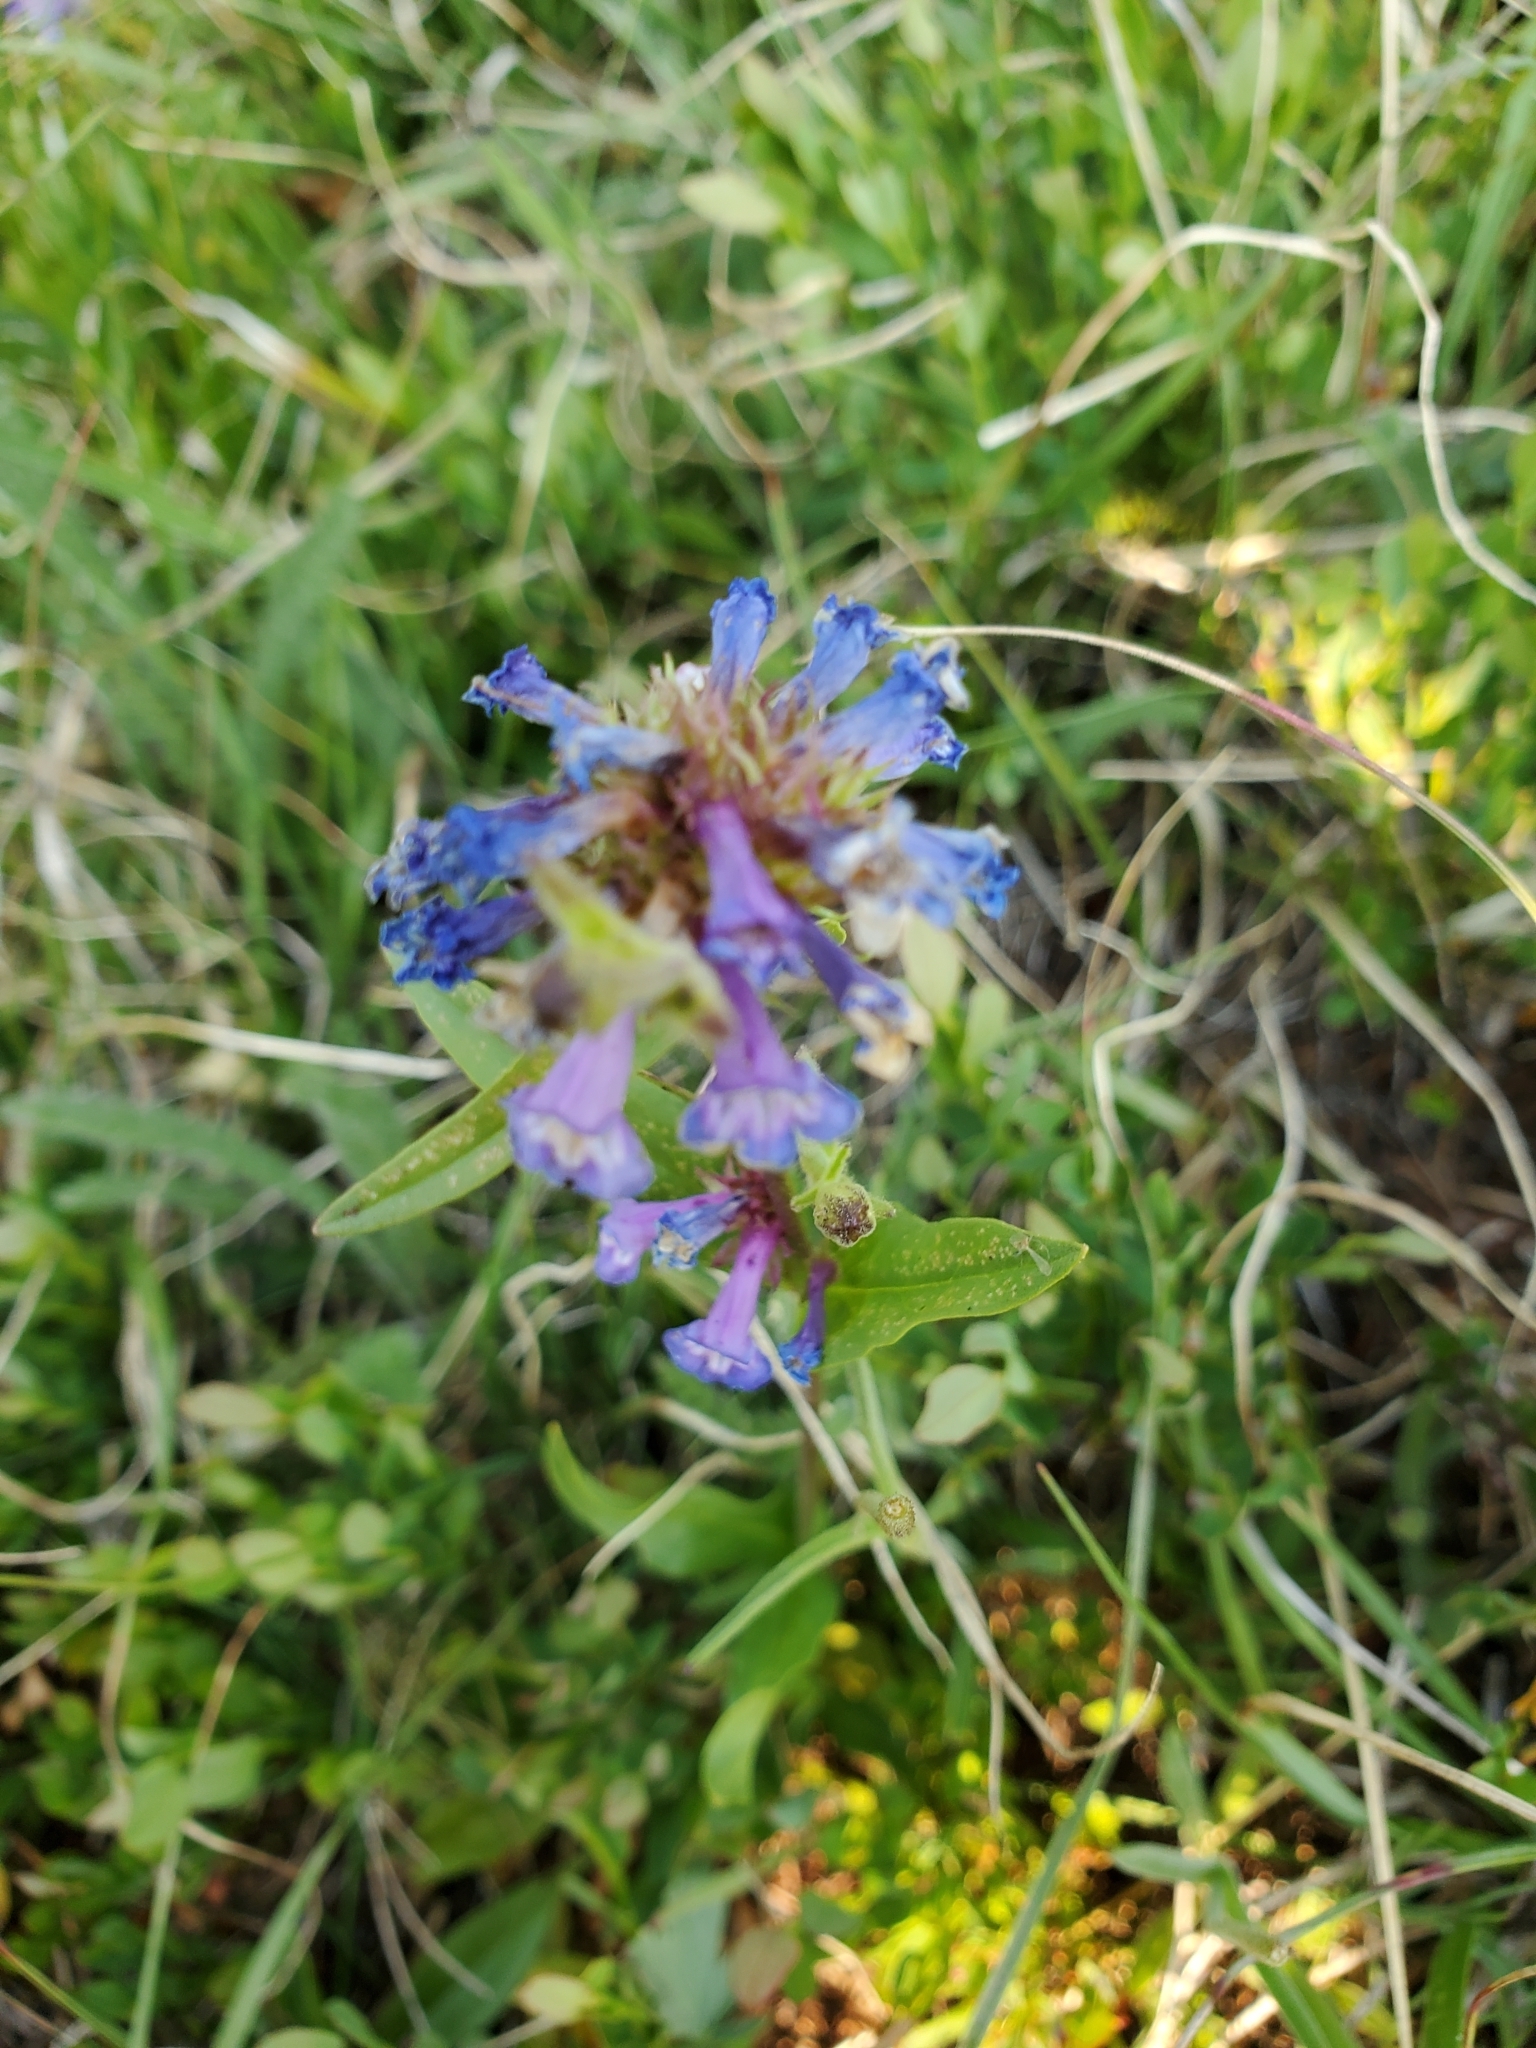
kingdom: Plantae
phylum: Tracheophyta
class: Magnoliopsida
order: Lamiales
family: Plantaginaceae
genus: Penstemon
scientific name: Penstemon procerus
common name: Small-flower penstemon
